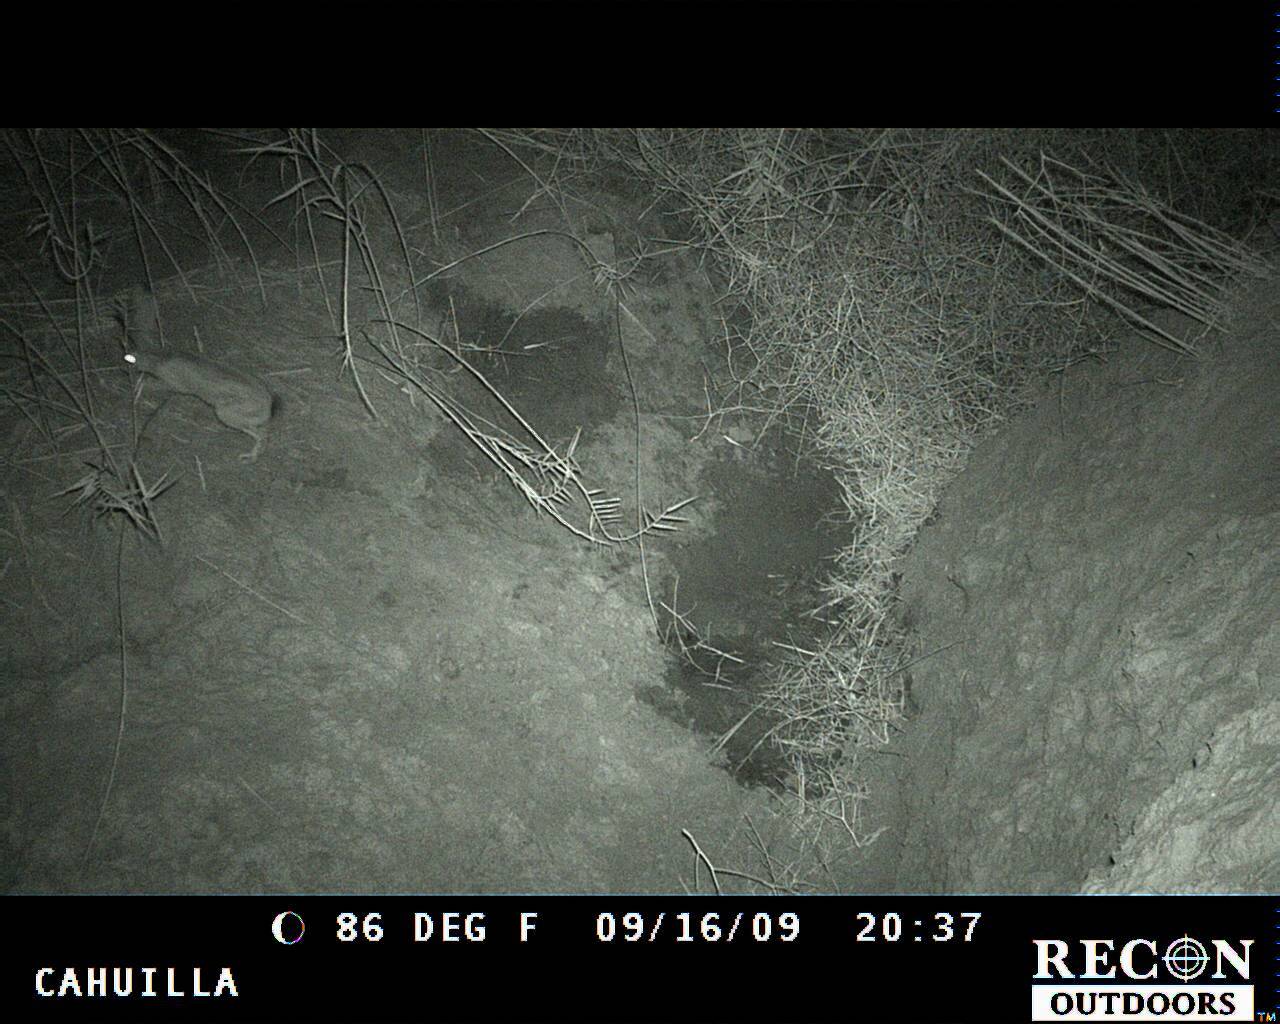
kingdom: Animalia
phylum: Chordata
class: Mammalia
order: Lagomorpha
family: Leporidae
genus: Lepus
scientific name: Lepus californicus
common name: Black-tailed jackrabbit
